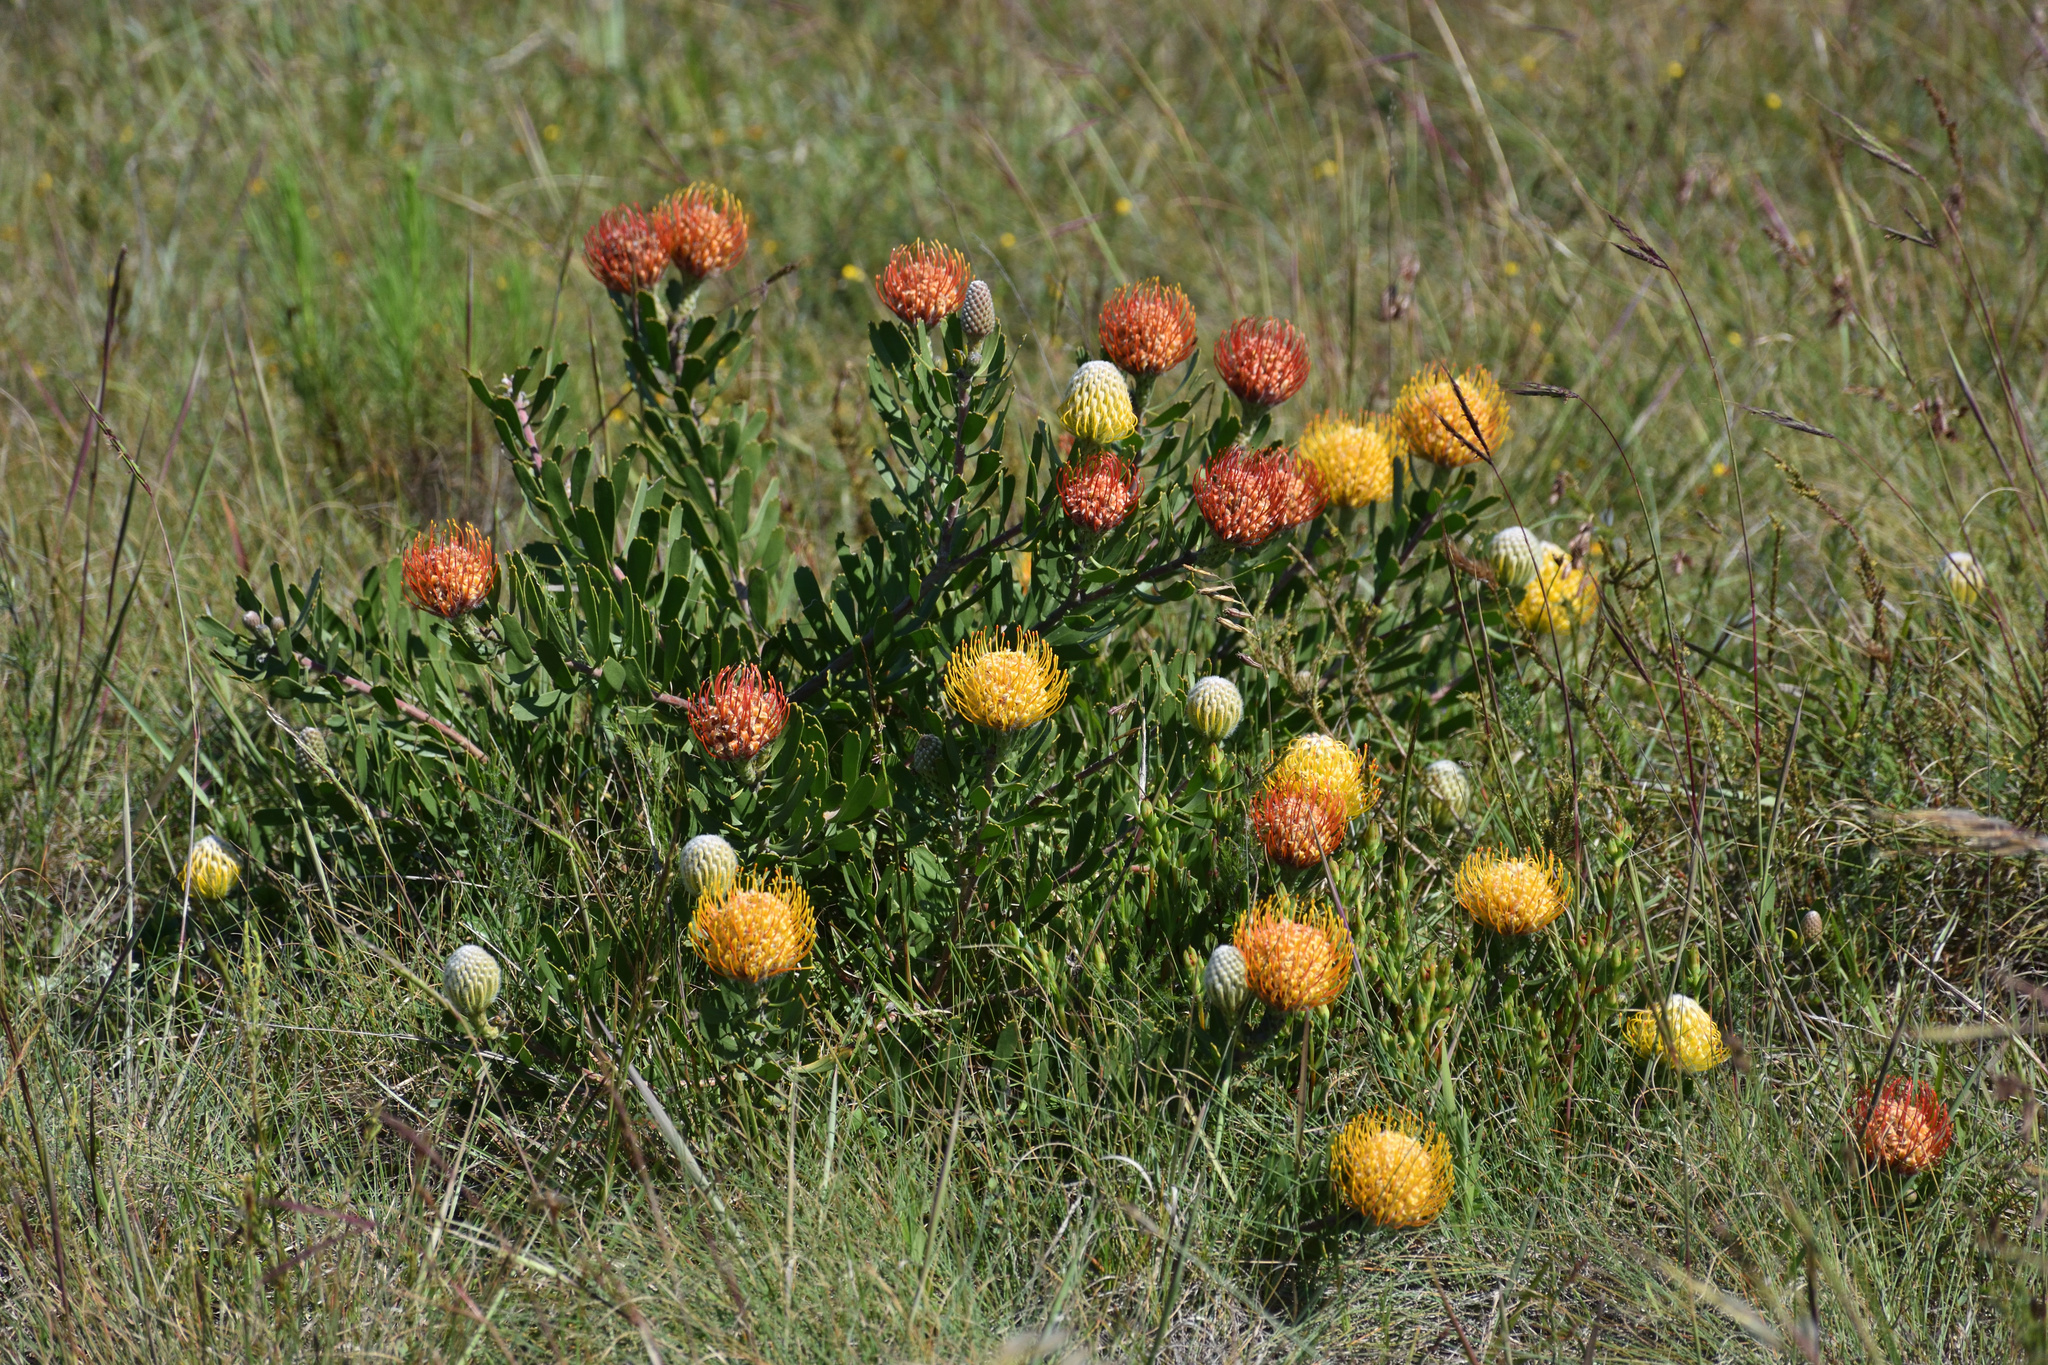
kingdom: Plantae
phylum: Tracheophyta
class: Magnoliopsida
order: Proteales
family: Proteaceae
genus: Leucospermum
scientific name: Leucospermum cuneiforme
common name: Common pincushion
